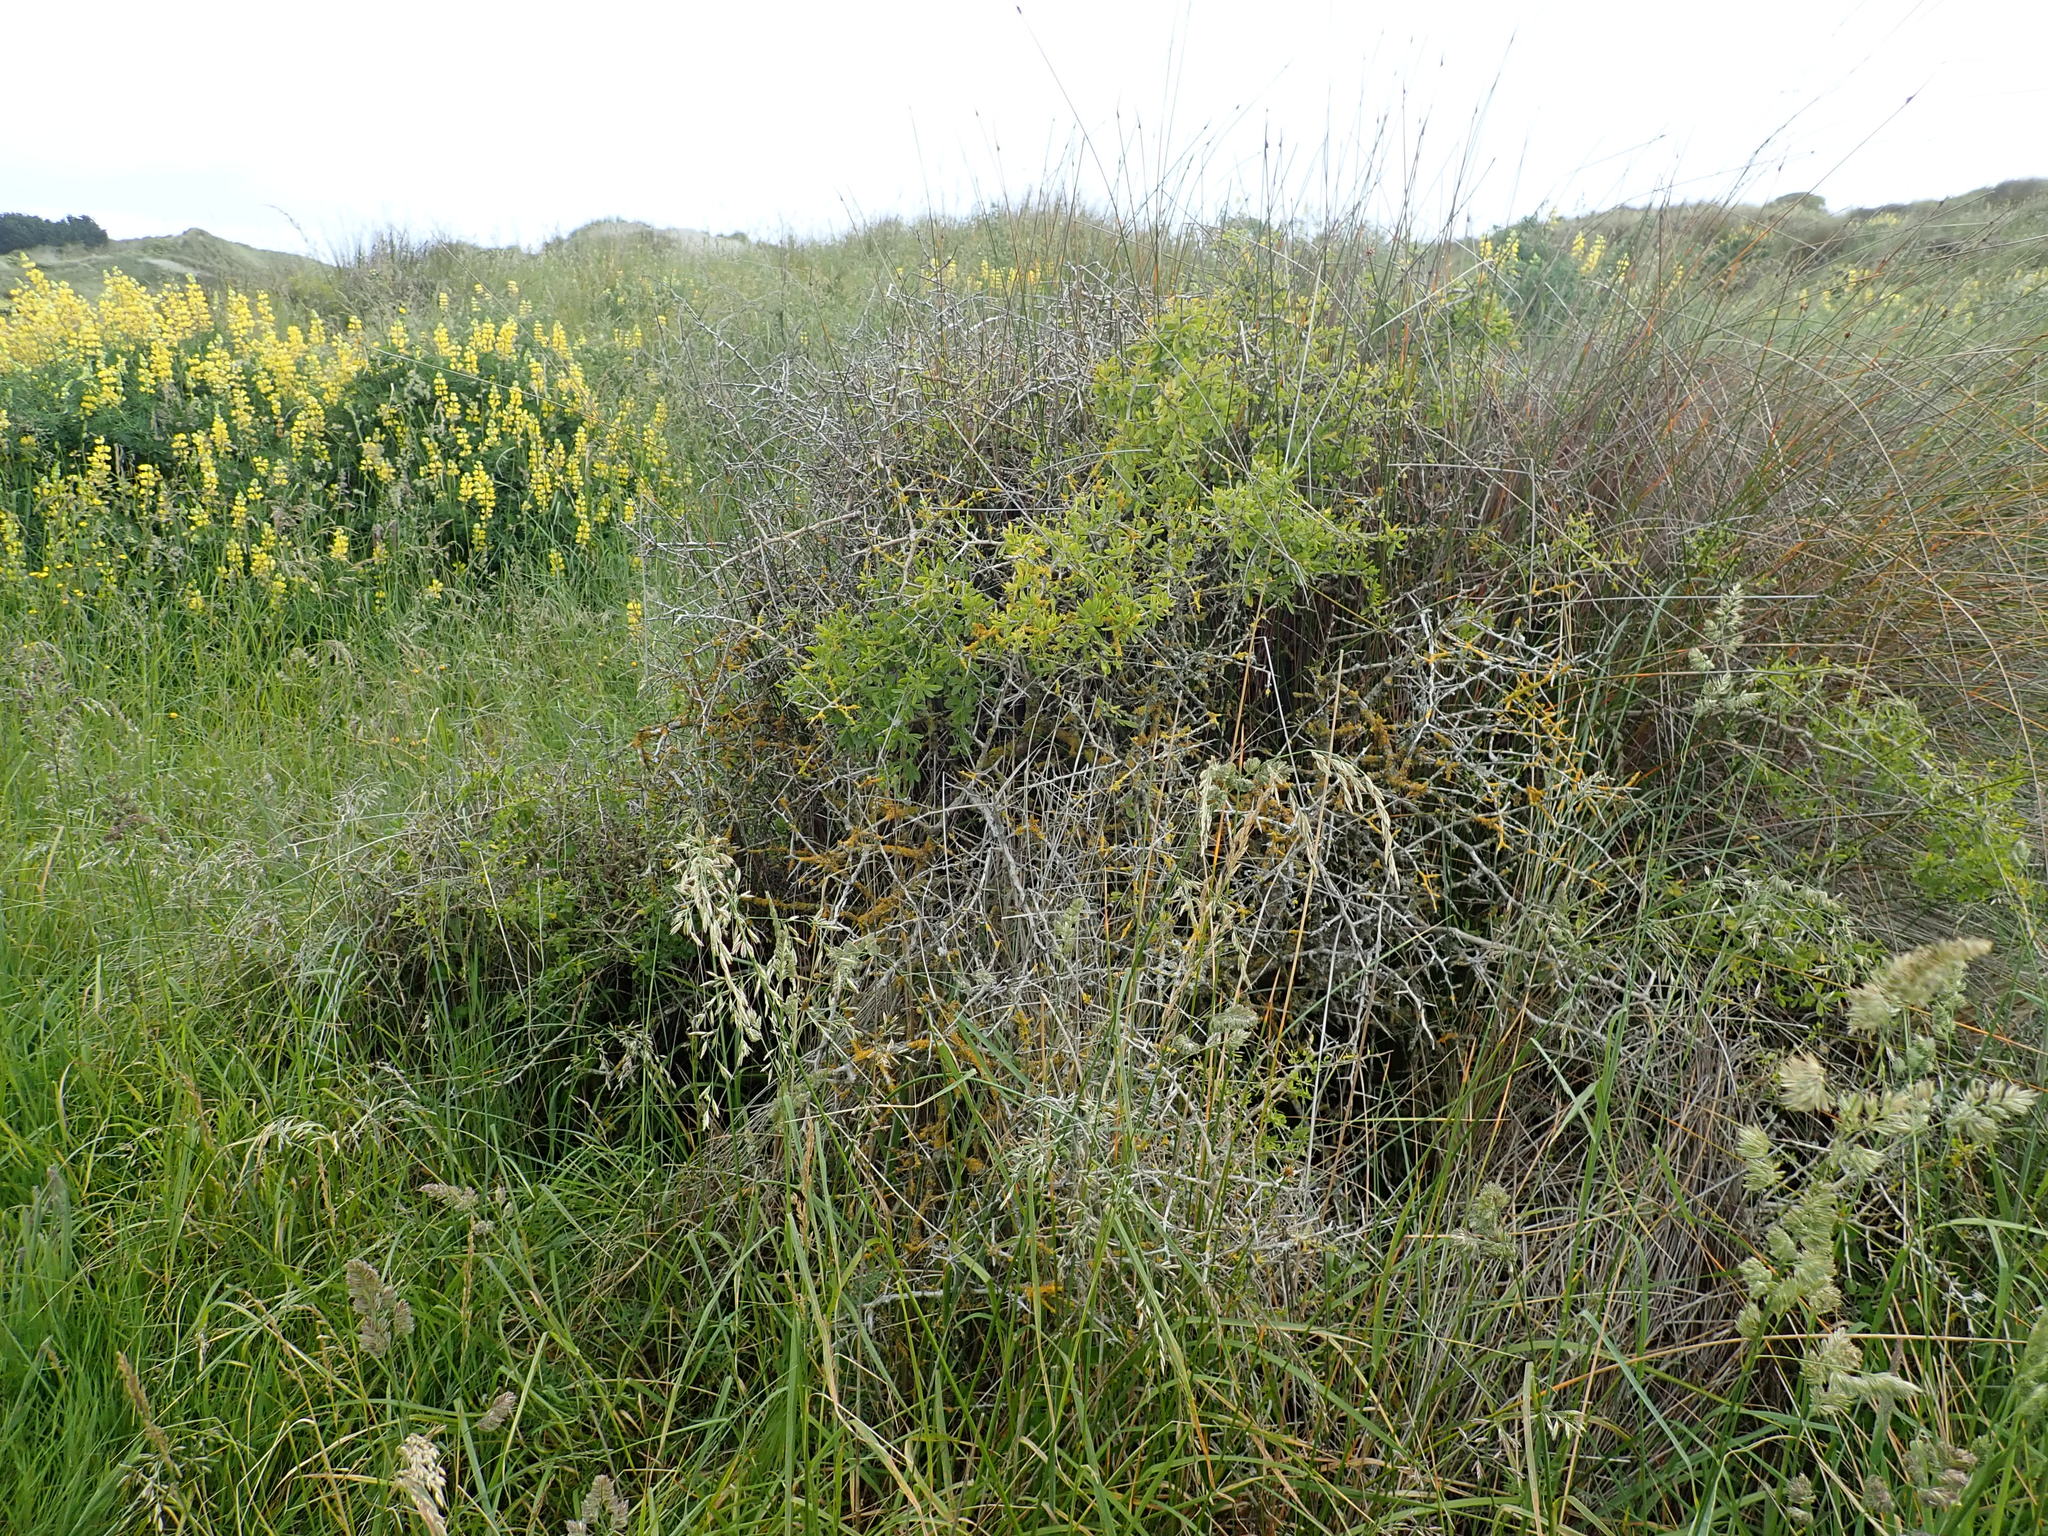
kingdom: Plantae
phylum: Tracheophyta
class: Magnoliopsida
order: Solanales
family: Solanaceae
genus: Lycium
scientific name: Lycium ferocissimum
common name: African boxthorn
